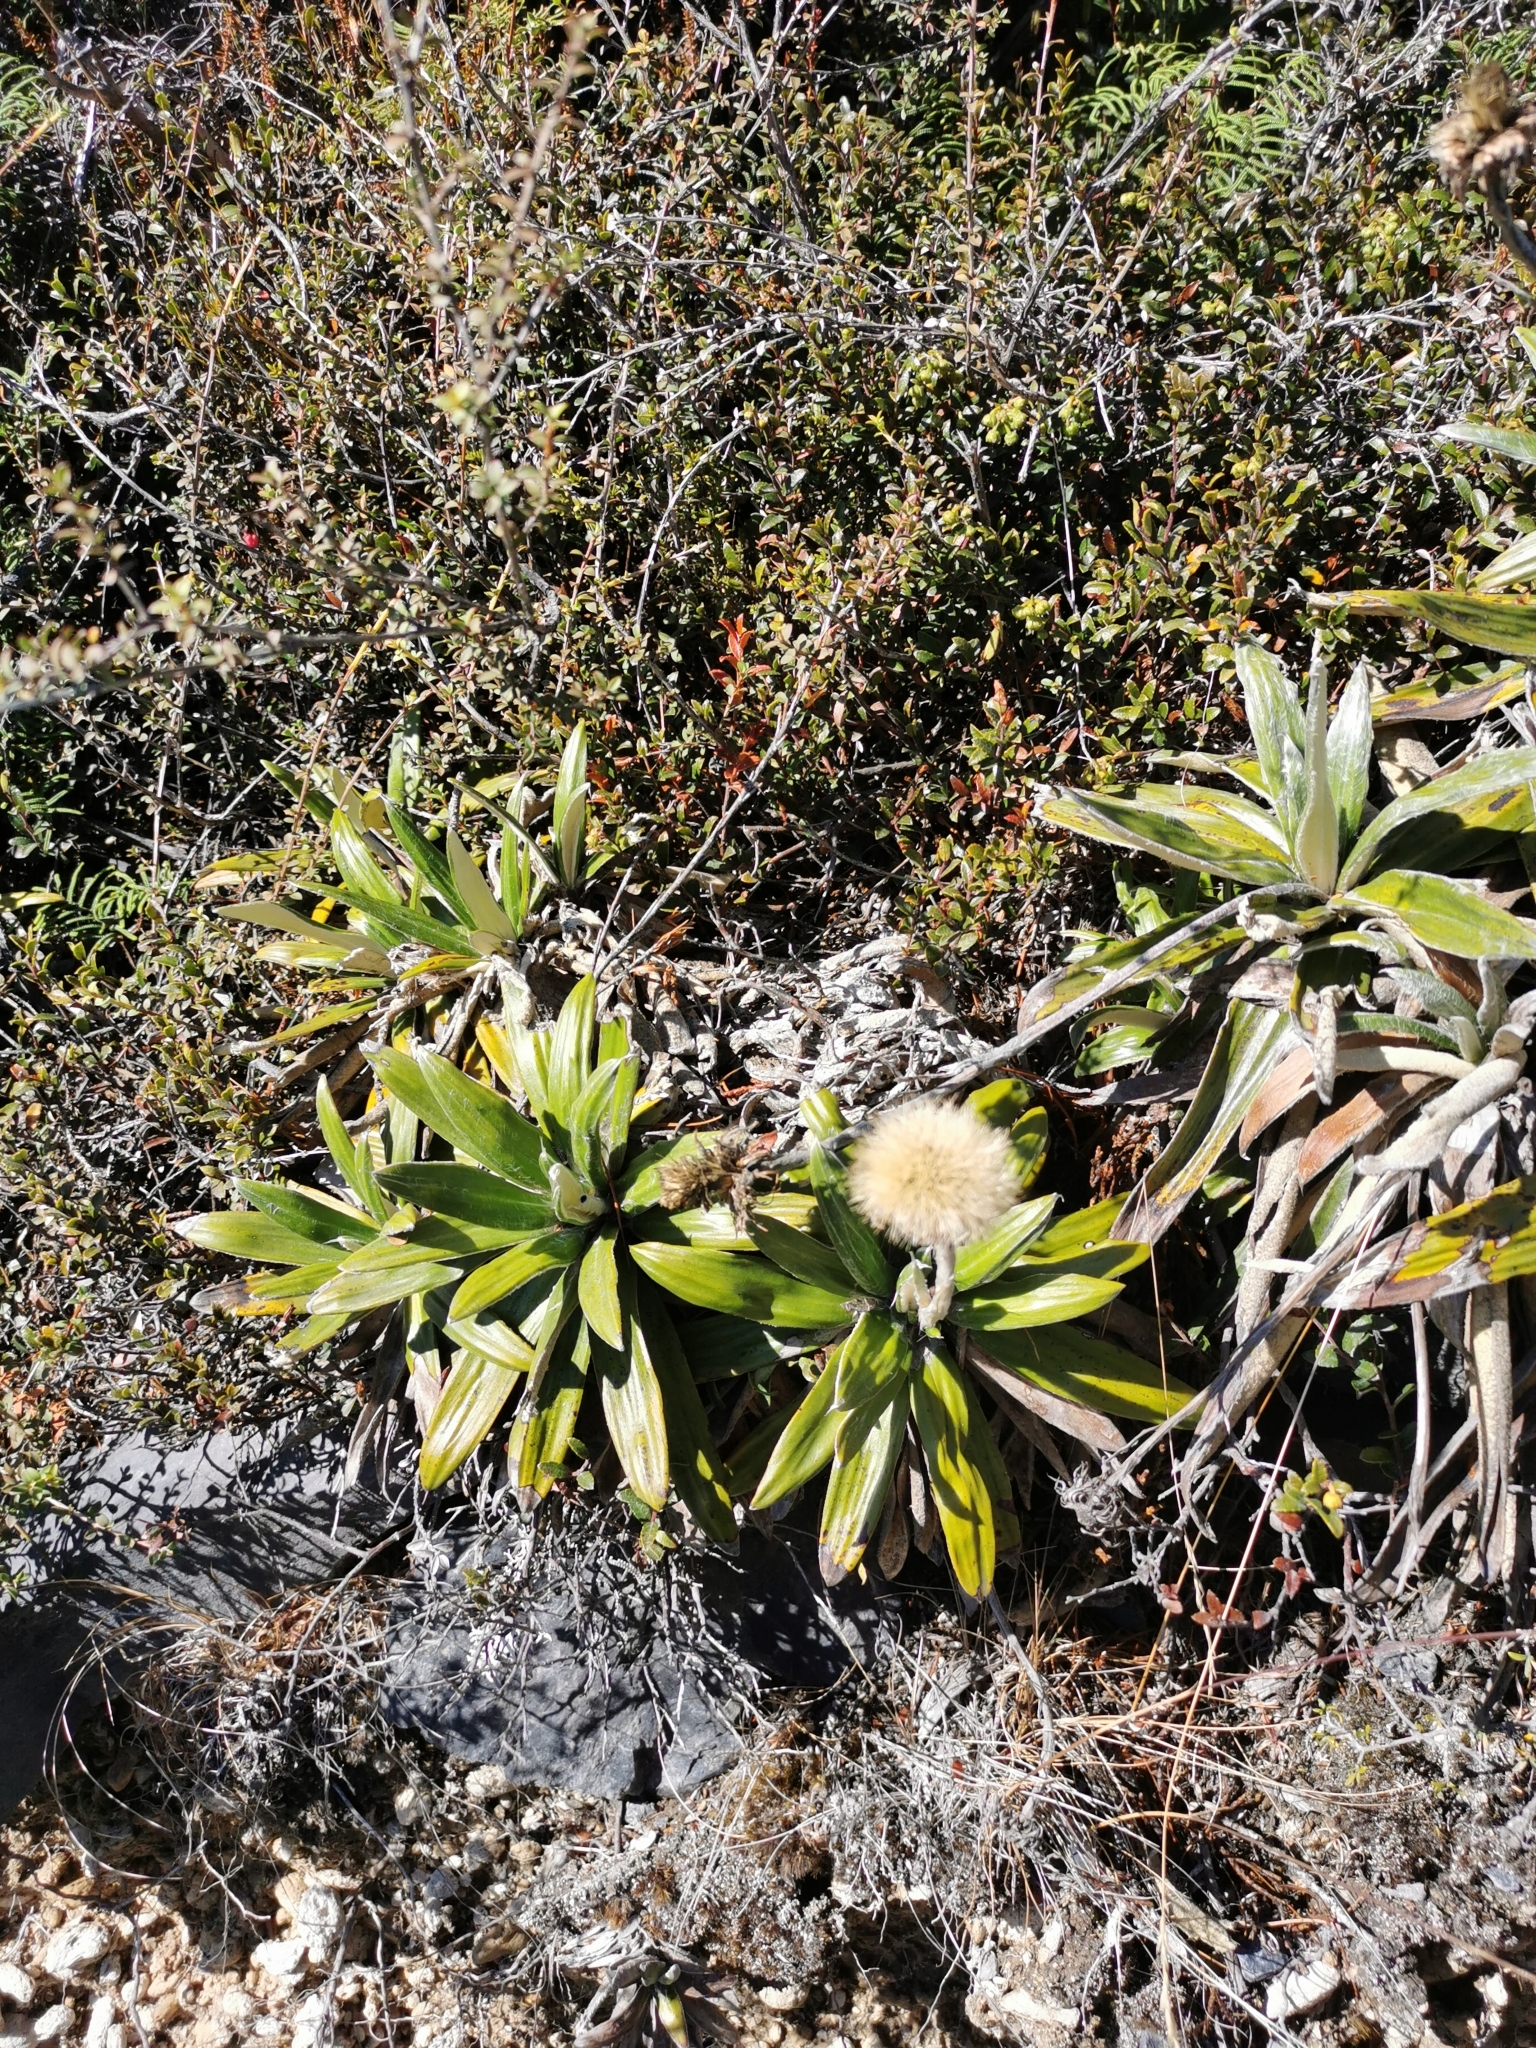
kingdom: Plantae
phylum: Tracheophyta
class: Magnoliopsida
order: Asterales
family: Asteraceae
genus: Celmisia
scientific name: Celmisia spectabilis
